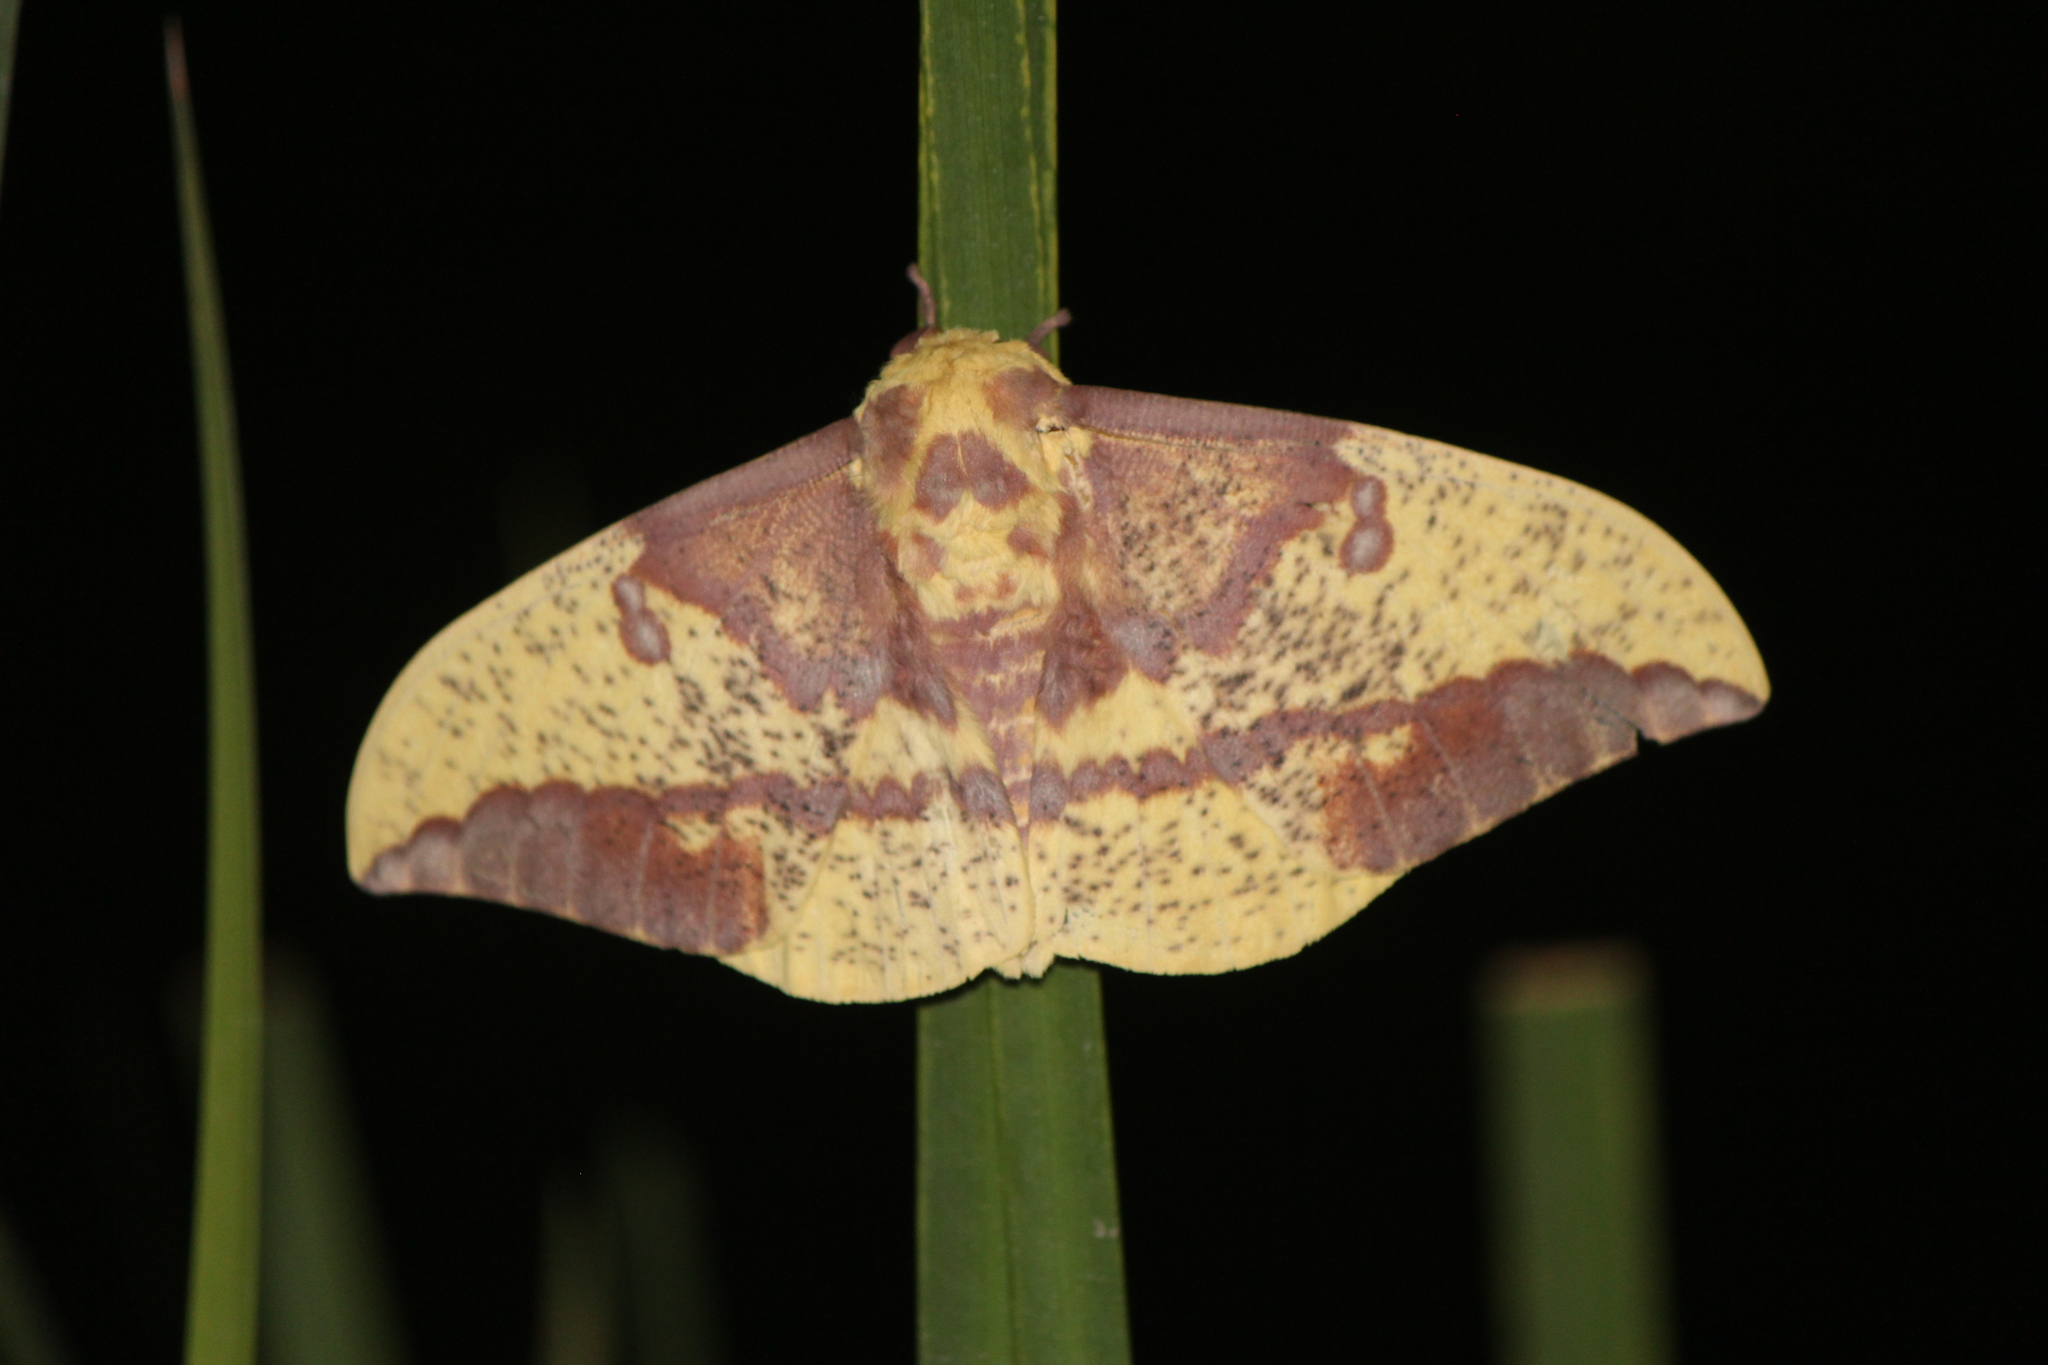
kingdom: Animalia
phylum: Arthropoda
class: Insecta
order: Lepidoptera
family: Saturniidae
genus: Eacles
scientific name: Eacles imperialis
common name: Imperial moth
